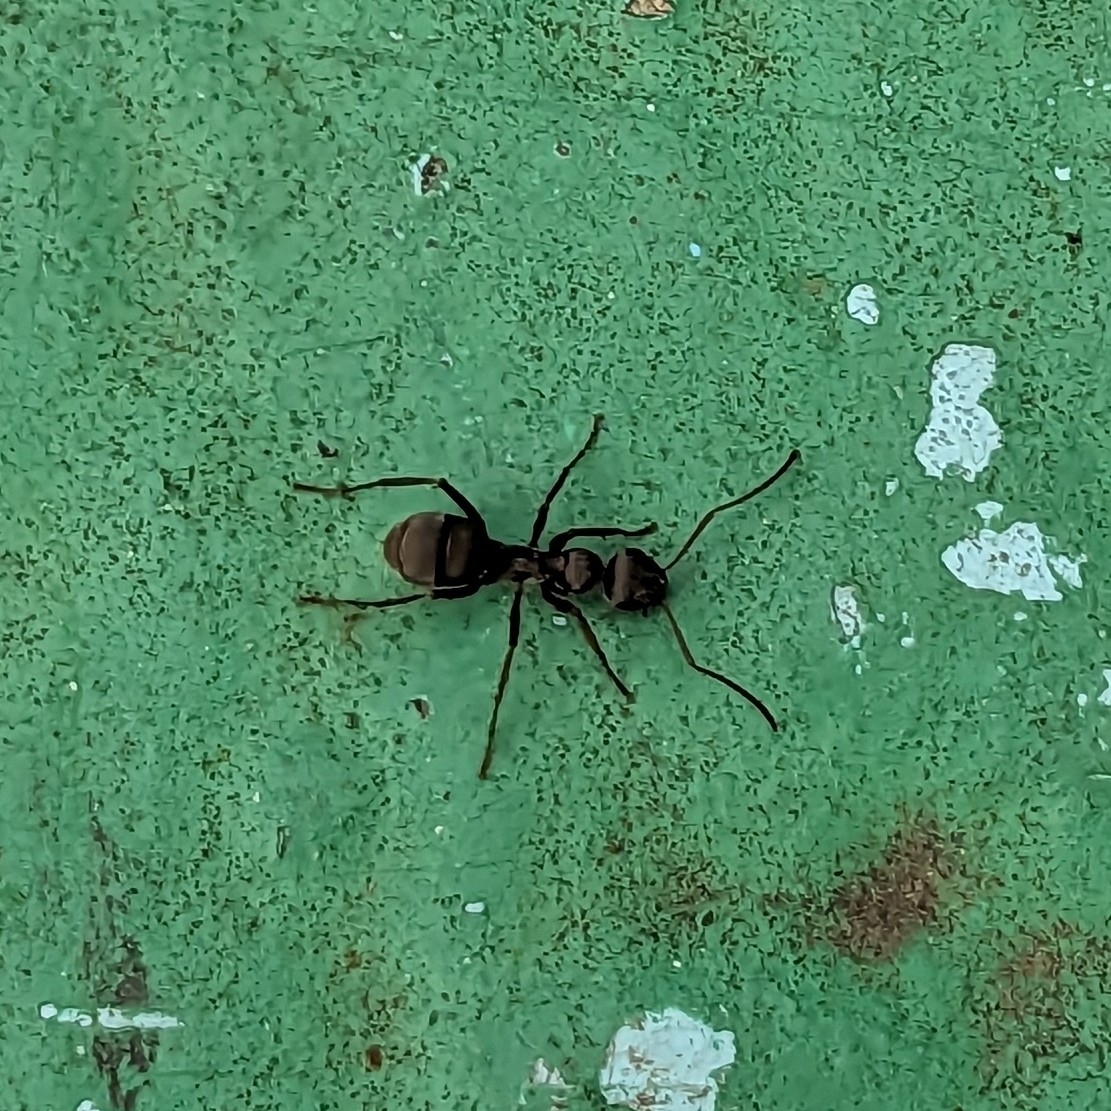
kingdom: Animalia
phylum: Arthropoda
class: Insecta
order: Hymenoptera
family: Formicidae
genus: Formica
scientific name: Formica japonica
